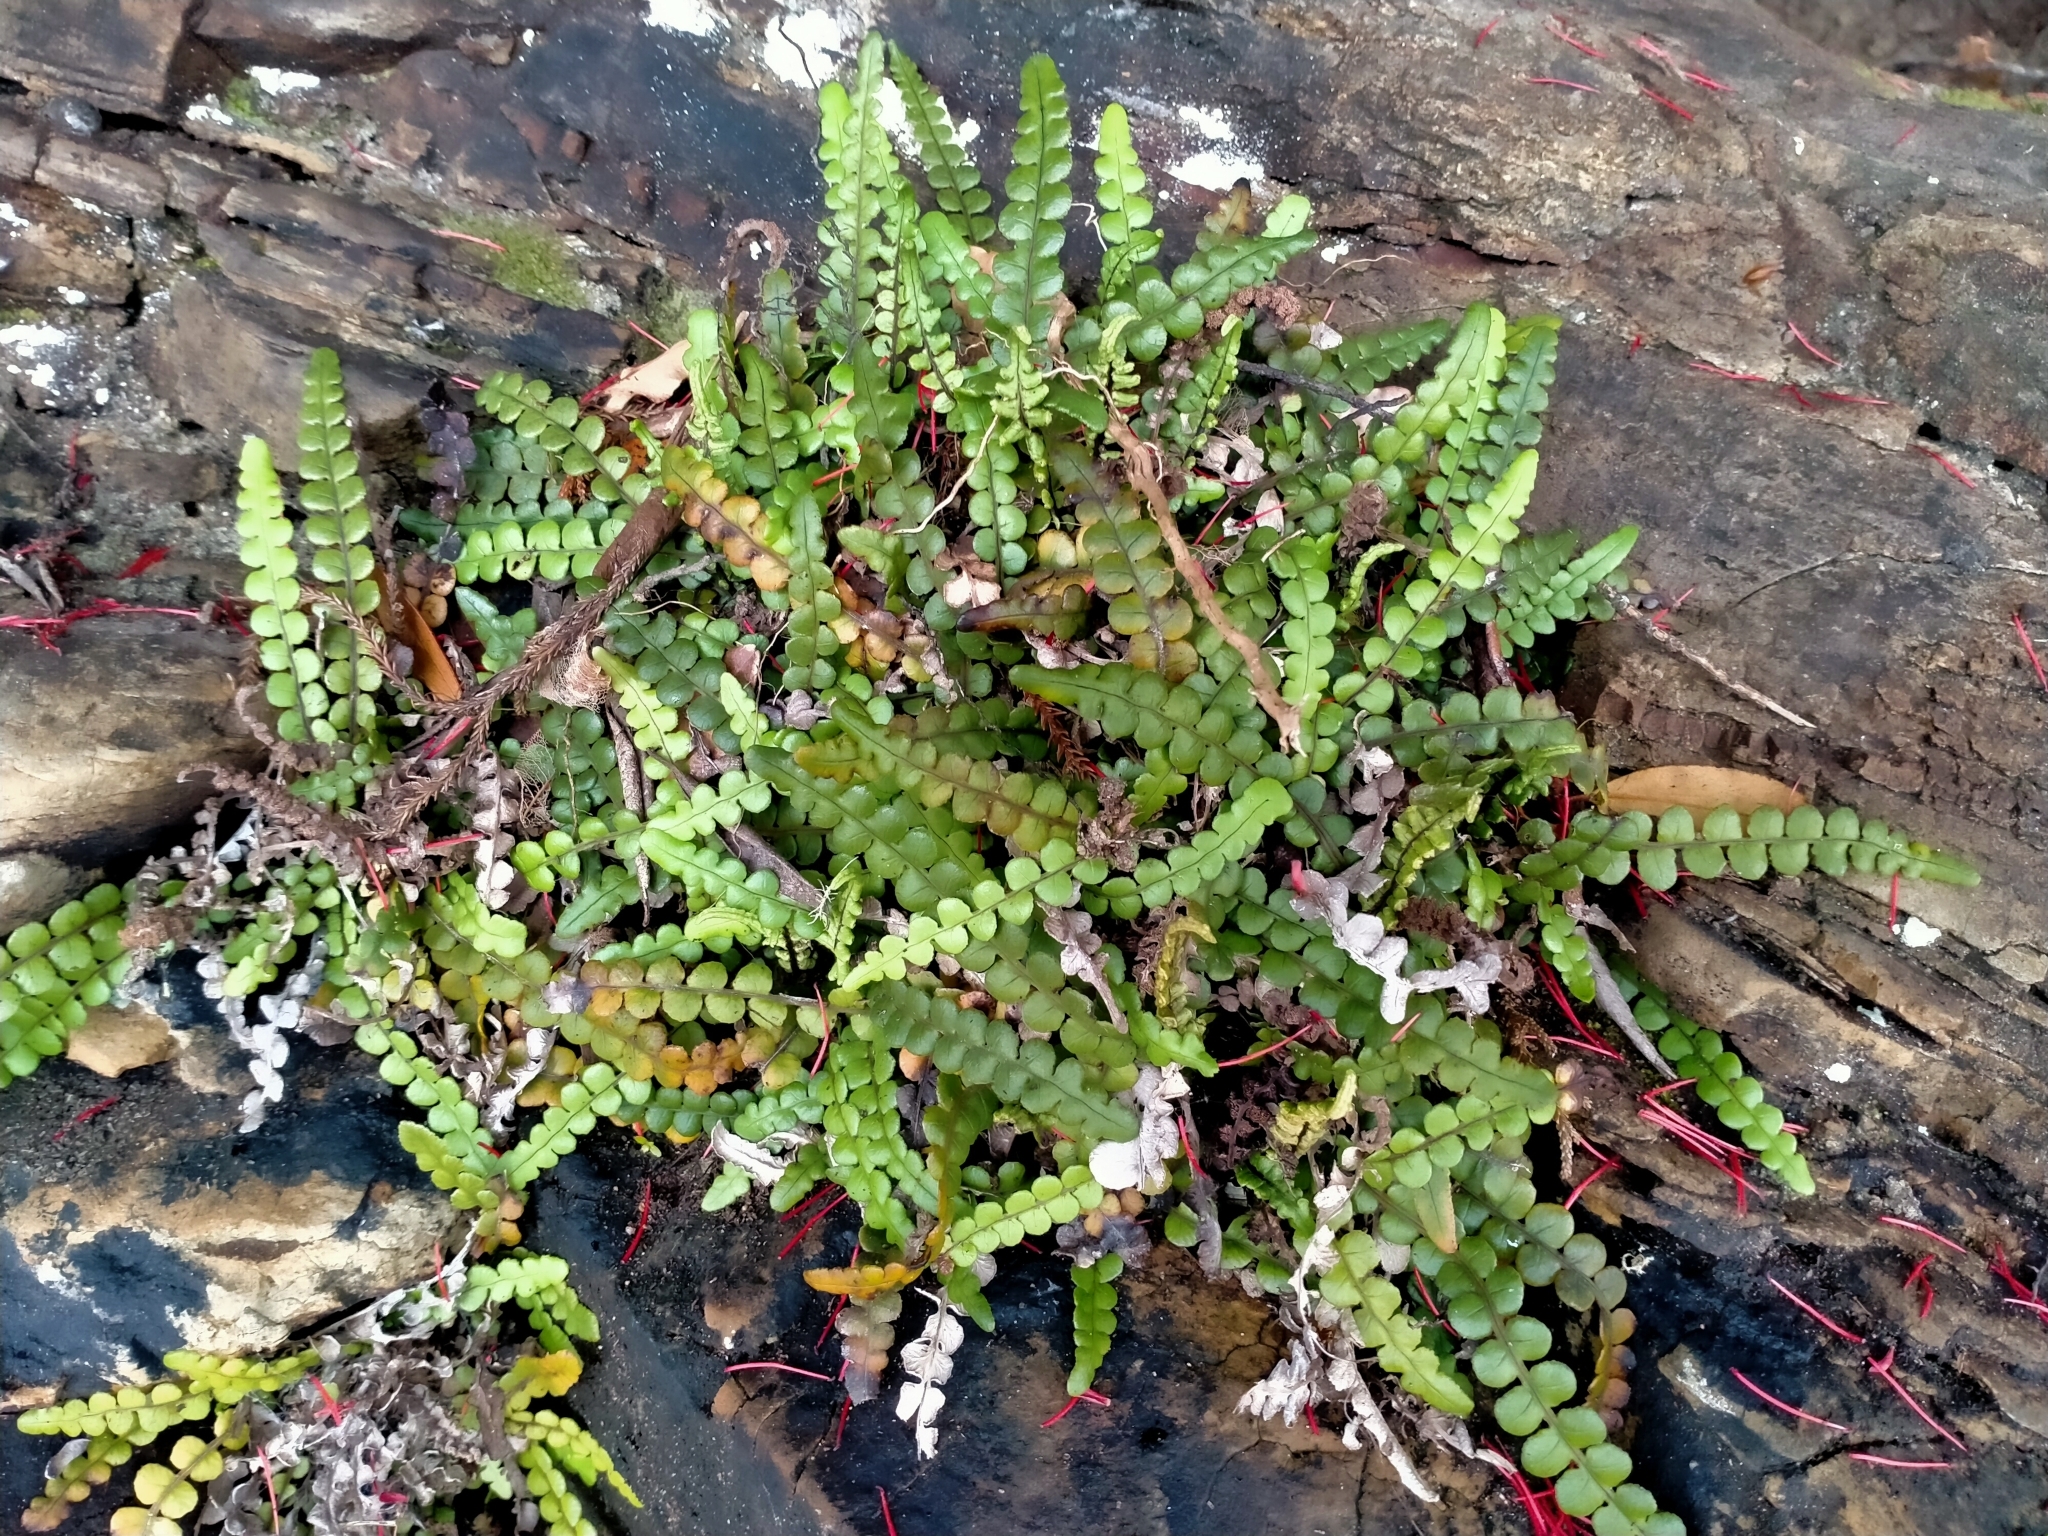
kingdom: Plantae
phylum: Tracheophyta
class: Polypodiopsida
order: Polypodiales
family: Blechnaceae
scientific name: Blechnaceae
